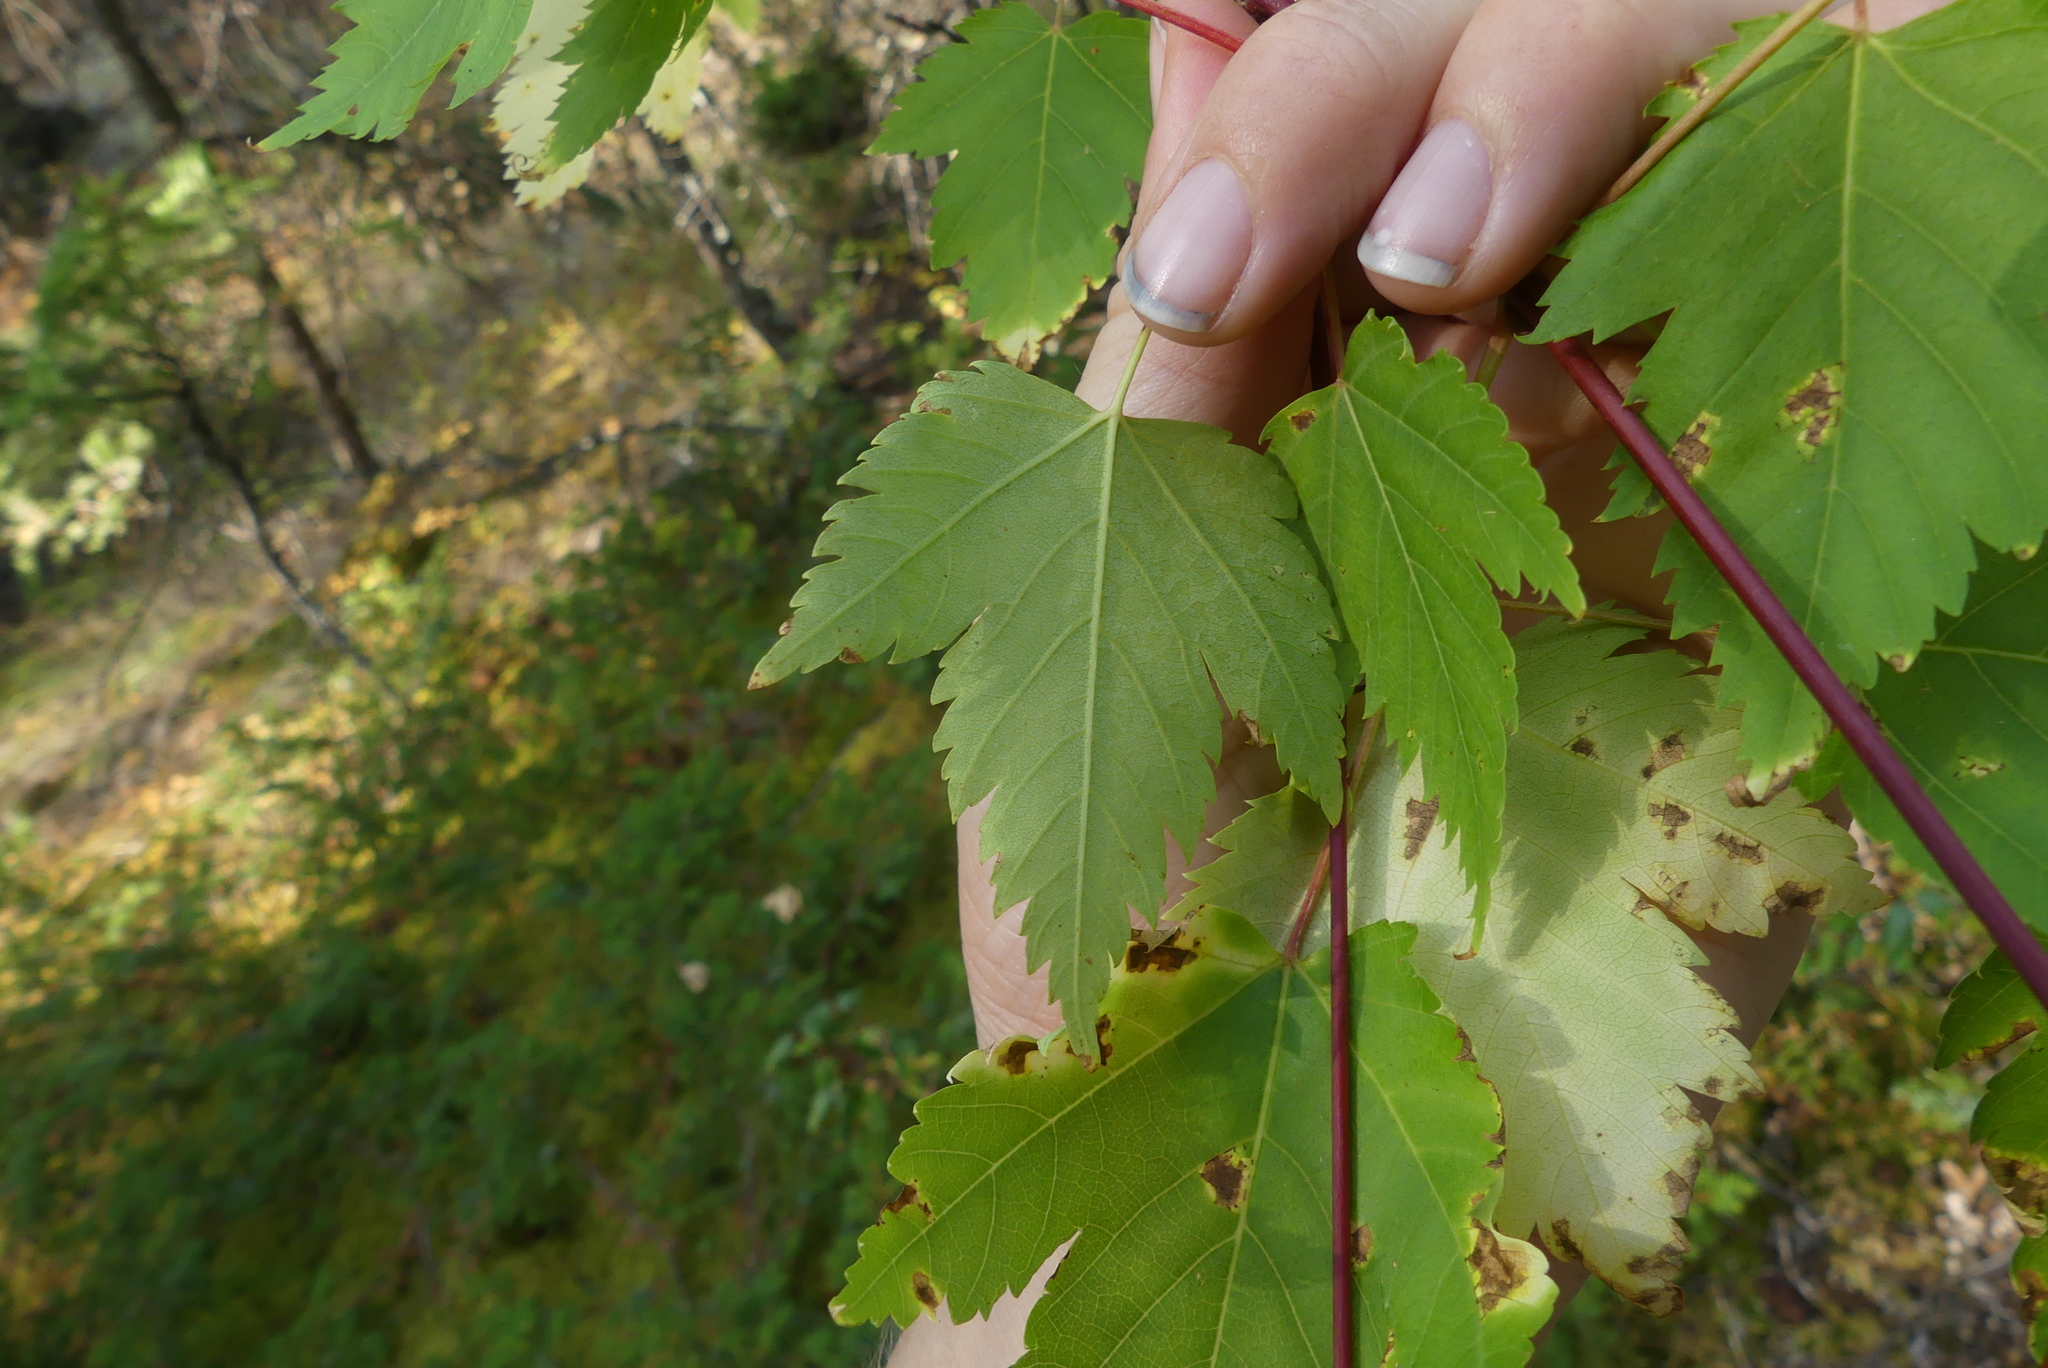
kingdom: Plantae
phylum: Tracheophyta
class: Magnoliopsida
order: Sapindales
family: Sapindaceae
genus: Acer
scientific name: Acer glabrum
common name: Rocky mountain maple
